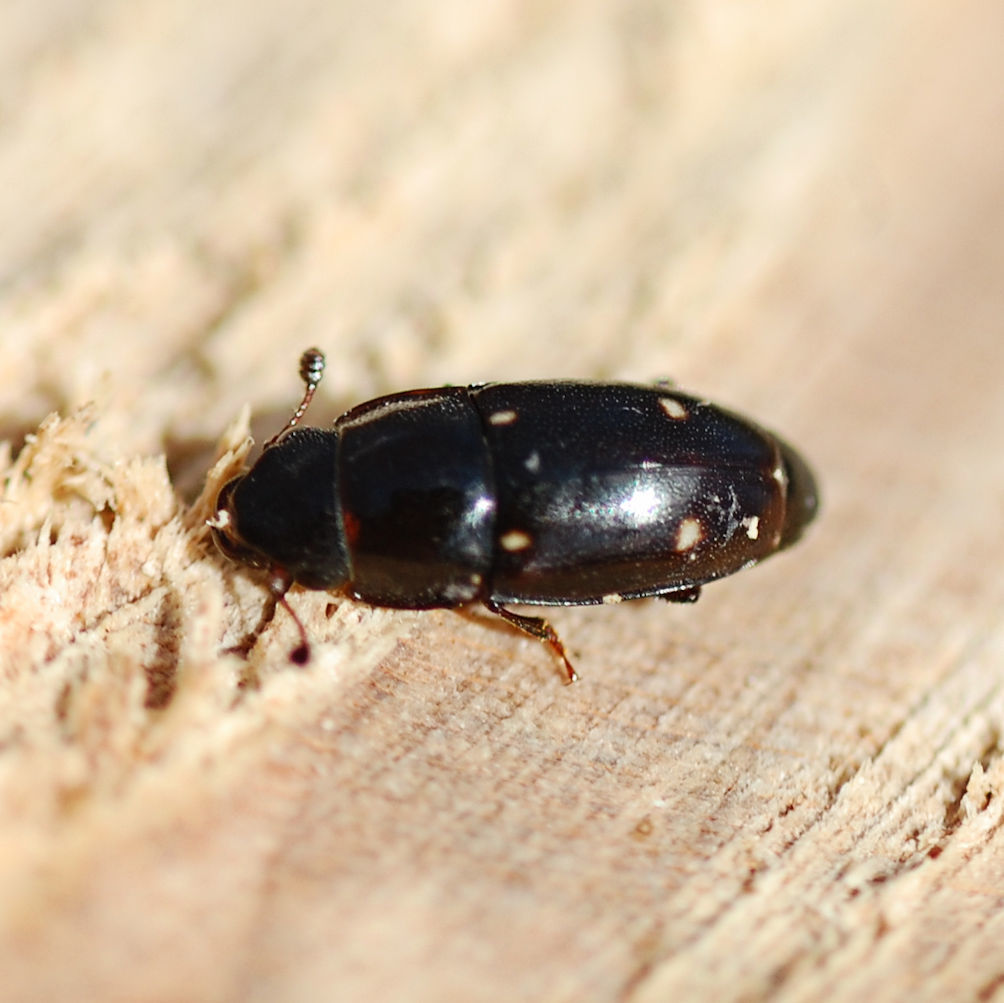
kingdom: Animalia
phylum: Arthropoda
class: Insecta
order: Coleoptera
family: Nitidulidae
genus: Glischrochilus
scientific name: Glischrochilus siepmanni
